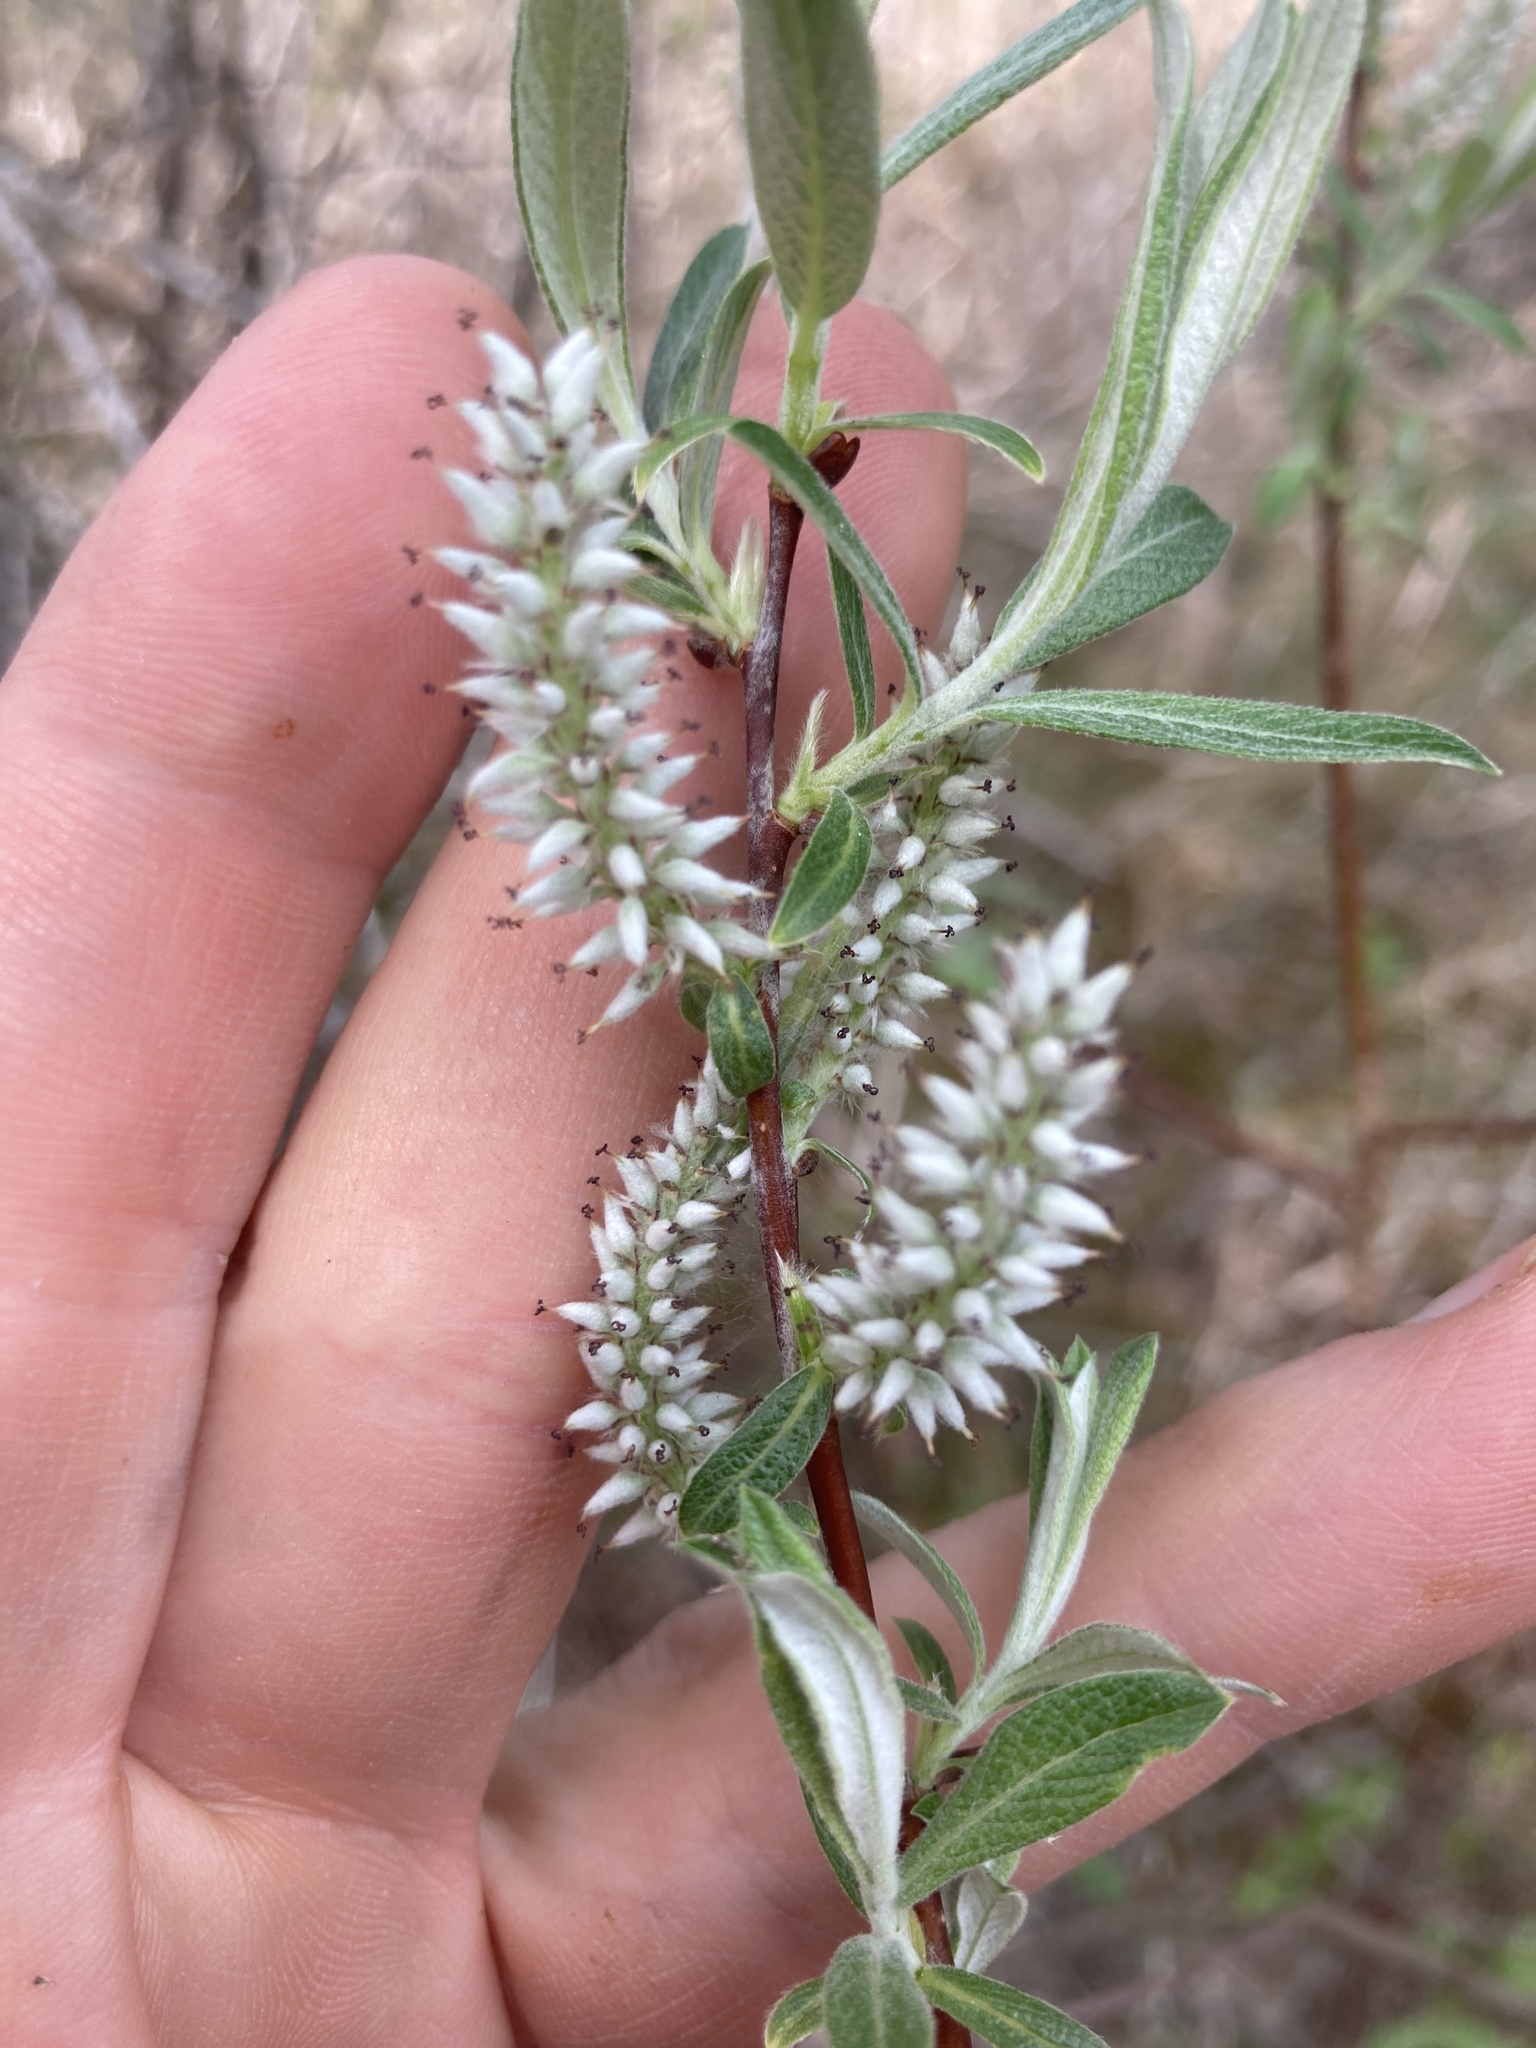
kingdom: Plantae
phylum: Tracheophyta
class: Magnoliopsida
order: Malpighiales
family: Salicaceae
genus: Salix
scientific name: Salix candida
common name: Hoary willow
